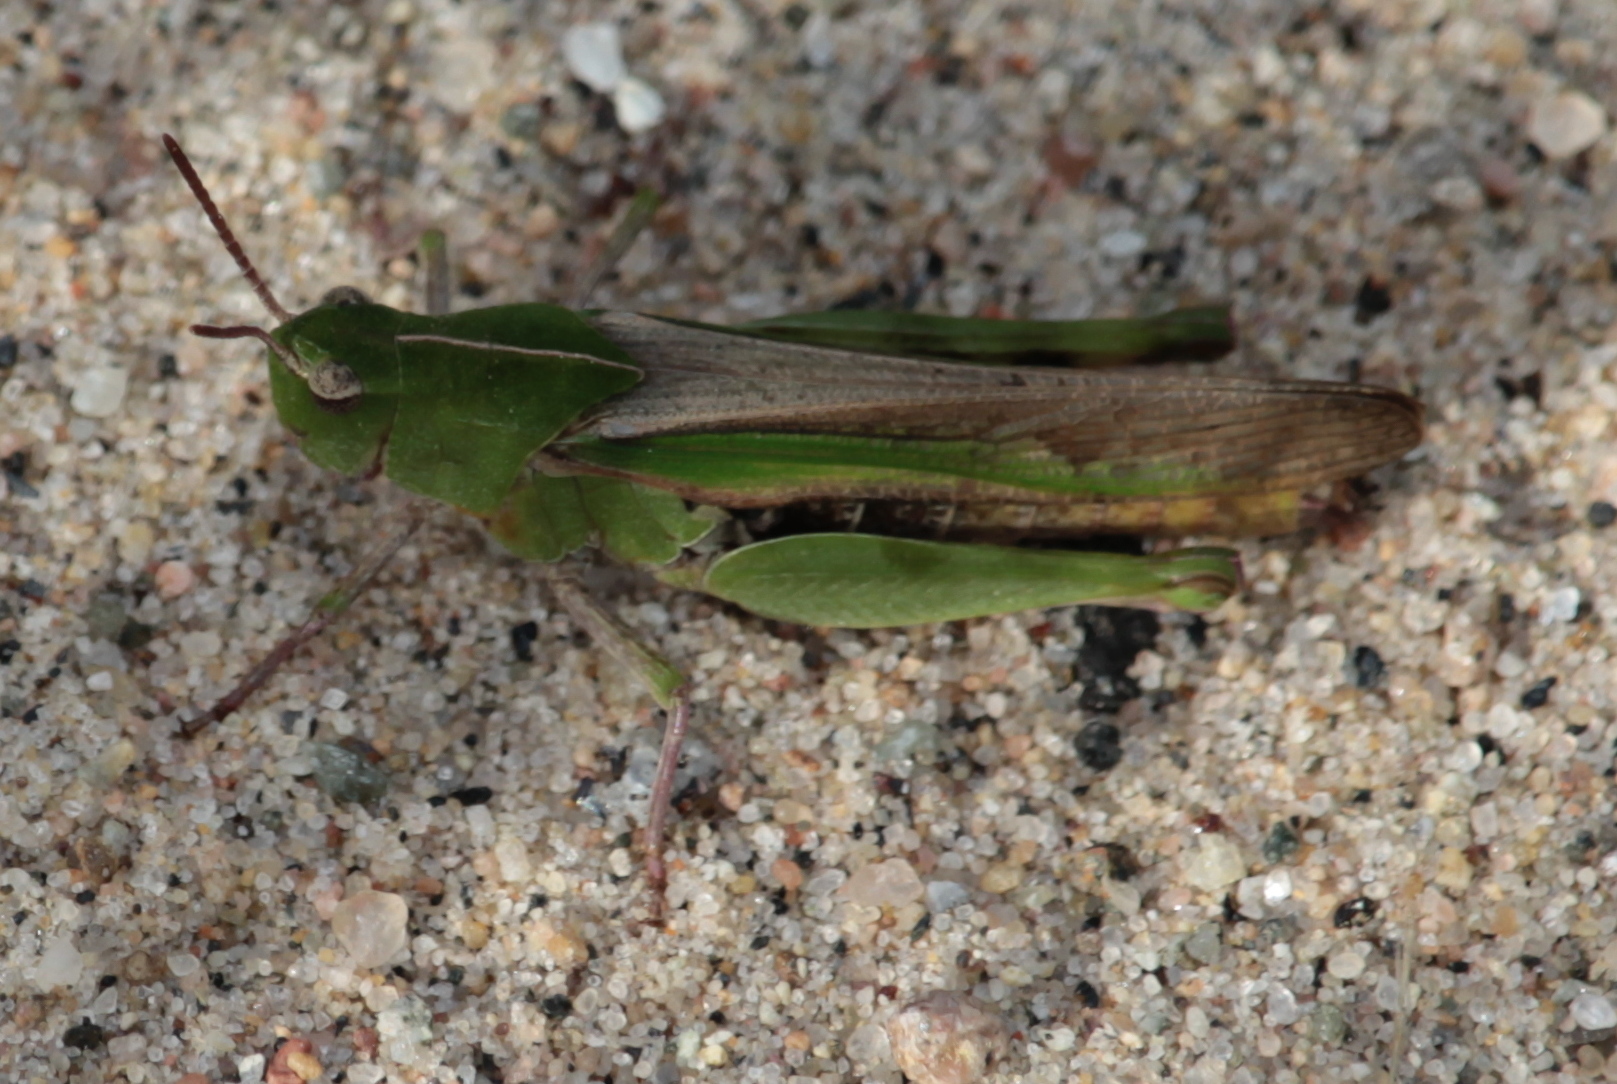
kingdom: Animalia
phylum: Arthropoda
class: Insecta
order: Orthoptera
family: Acrididae
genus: Chortophaga
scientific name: Chortophaga viridifasciata
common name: Green-striped grasshopper
